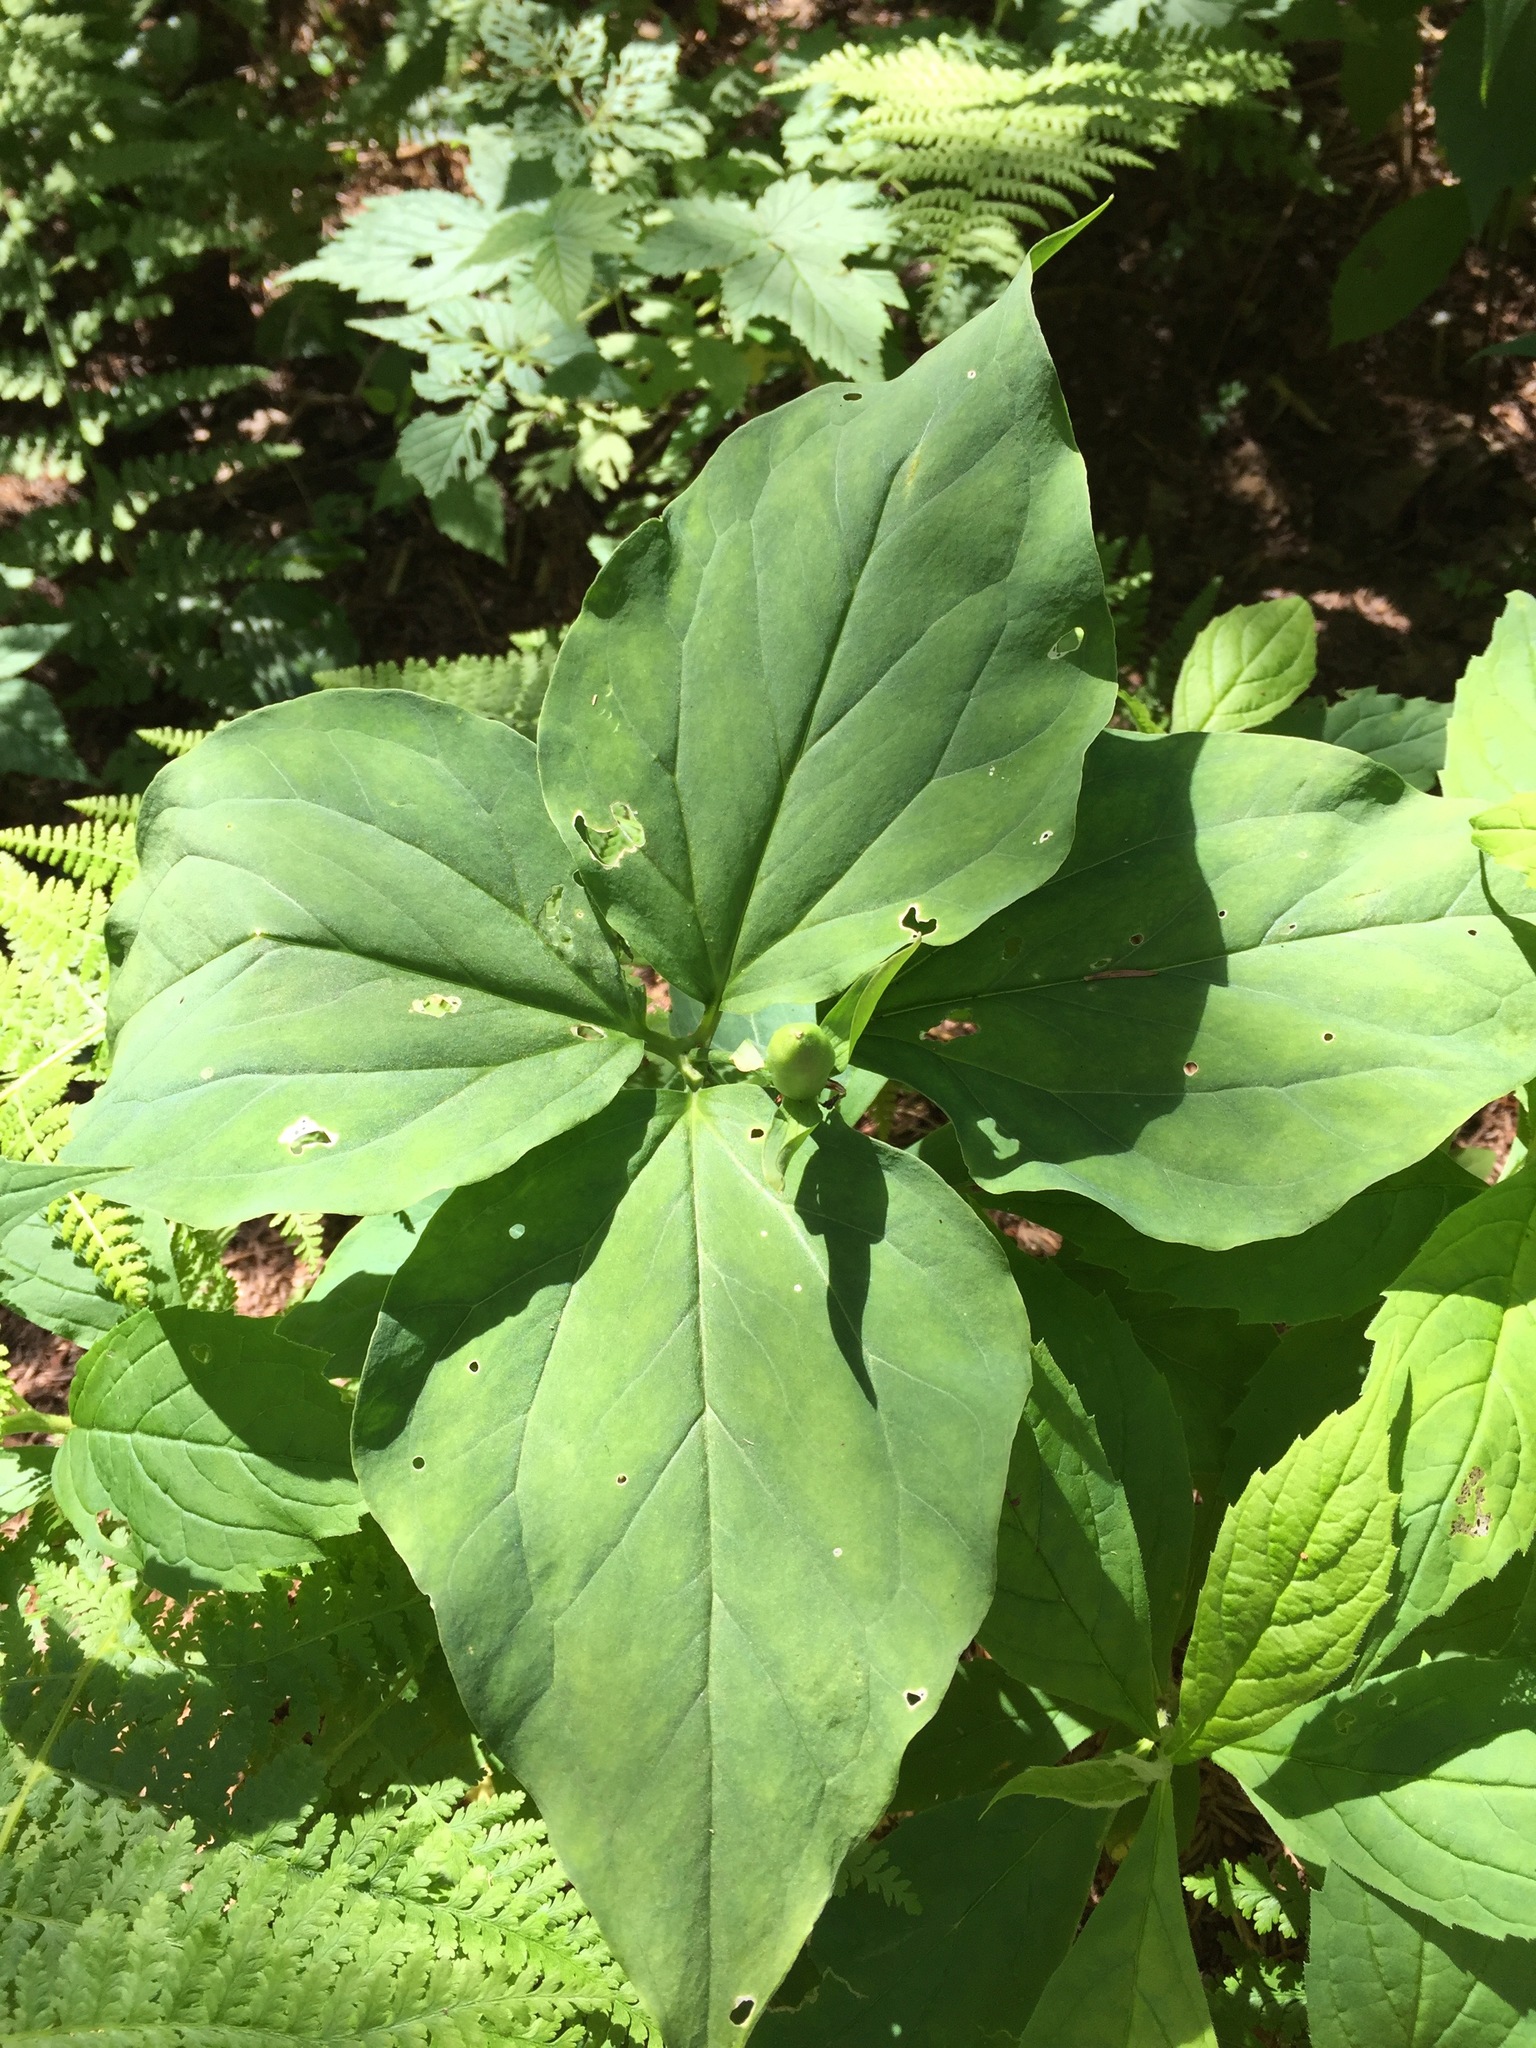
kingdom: Plantae
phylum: Tracheophyta
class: Liliopsida
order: Liliales
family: Melanthiaceae
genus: Trillium
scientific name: Trillium undulatum
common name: Paint trillium
